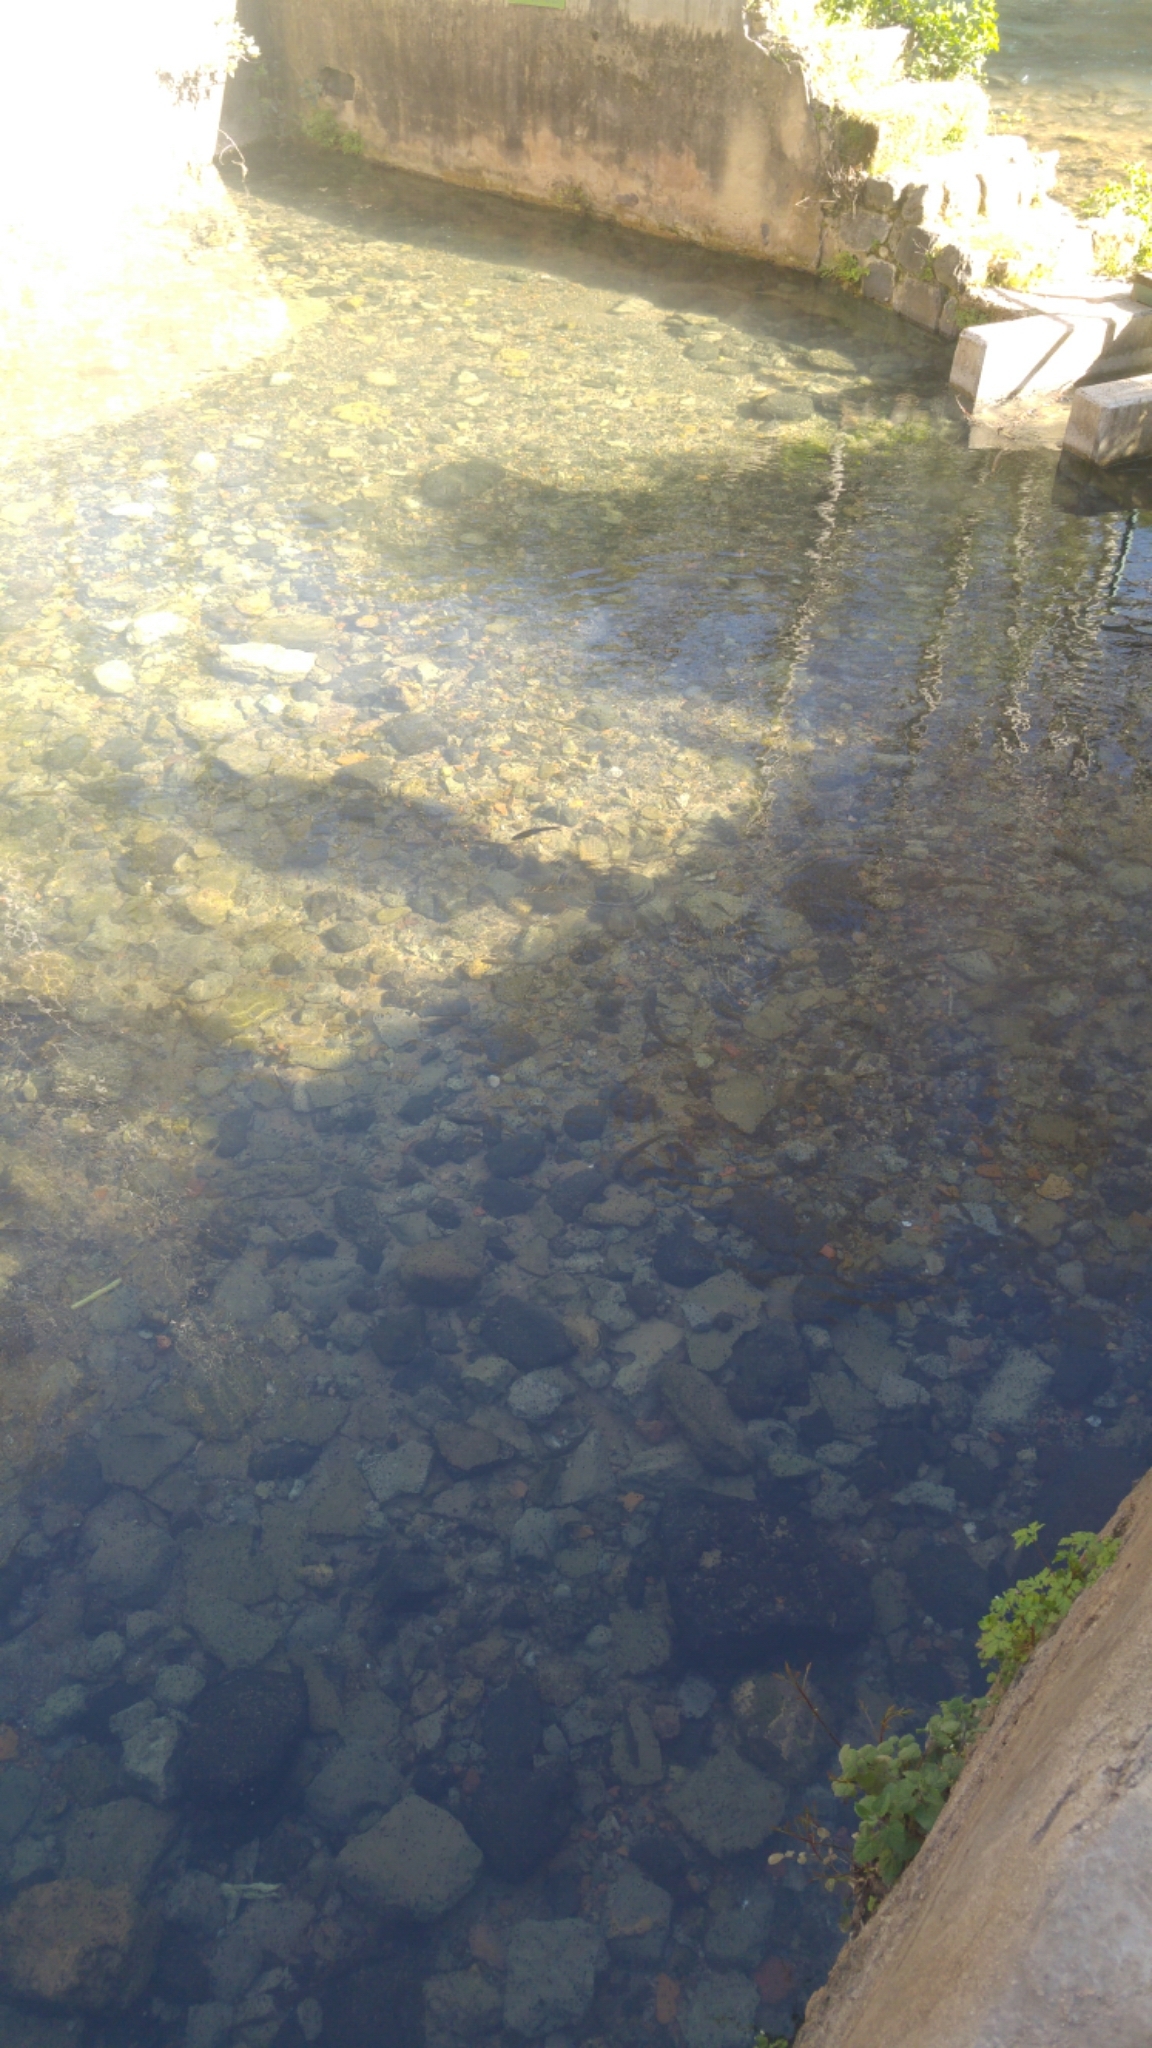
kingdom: Animalia
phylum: Chordata
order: Cypriniformes
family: Cyprinidae
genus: Capoeta
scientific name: Capoeta damascina
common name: Levantine scraper
